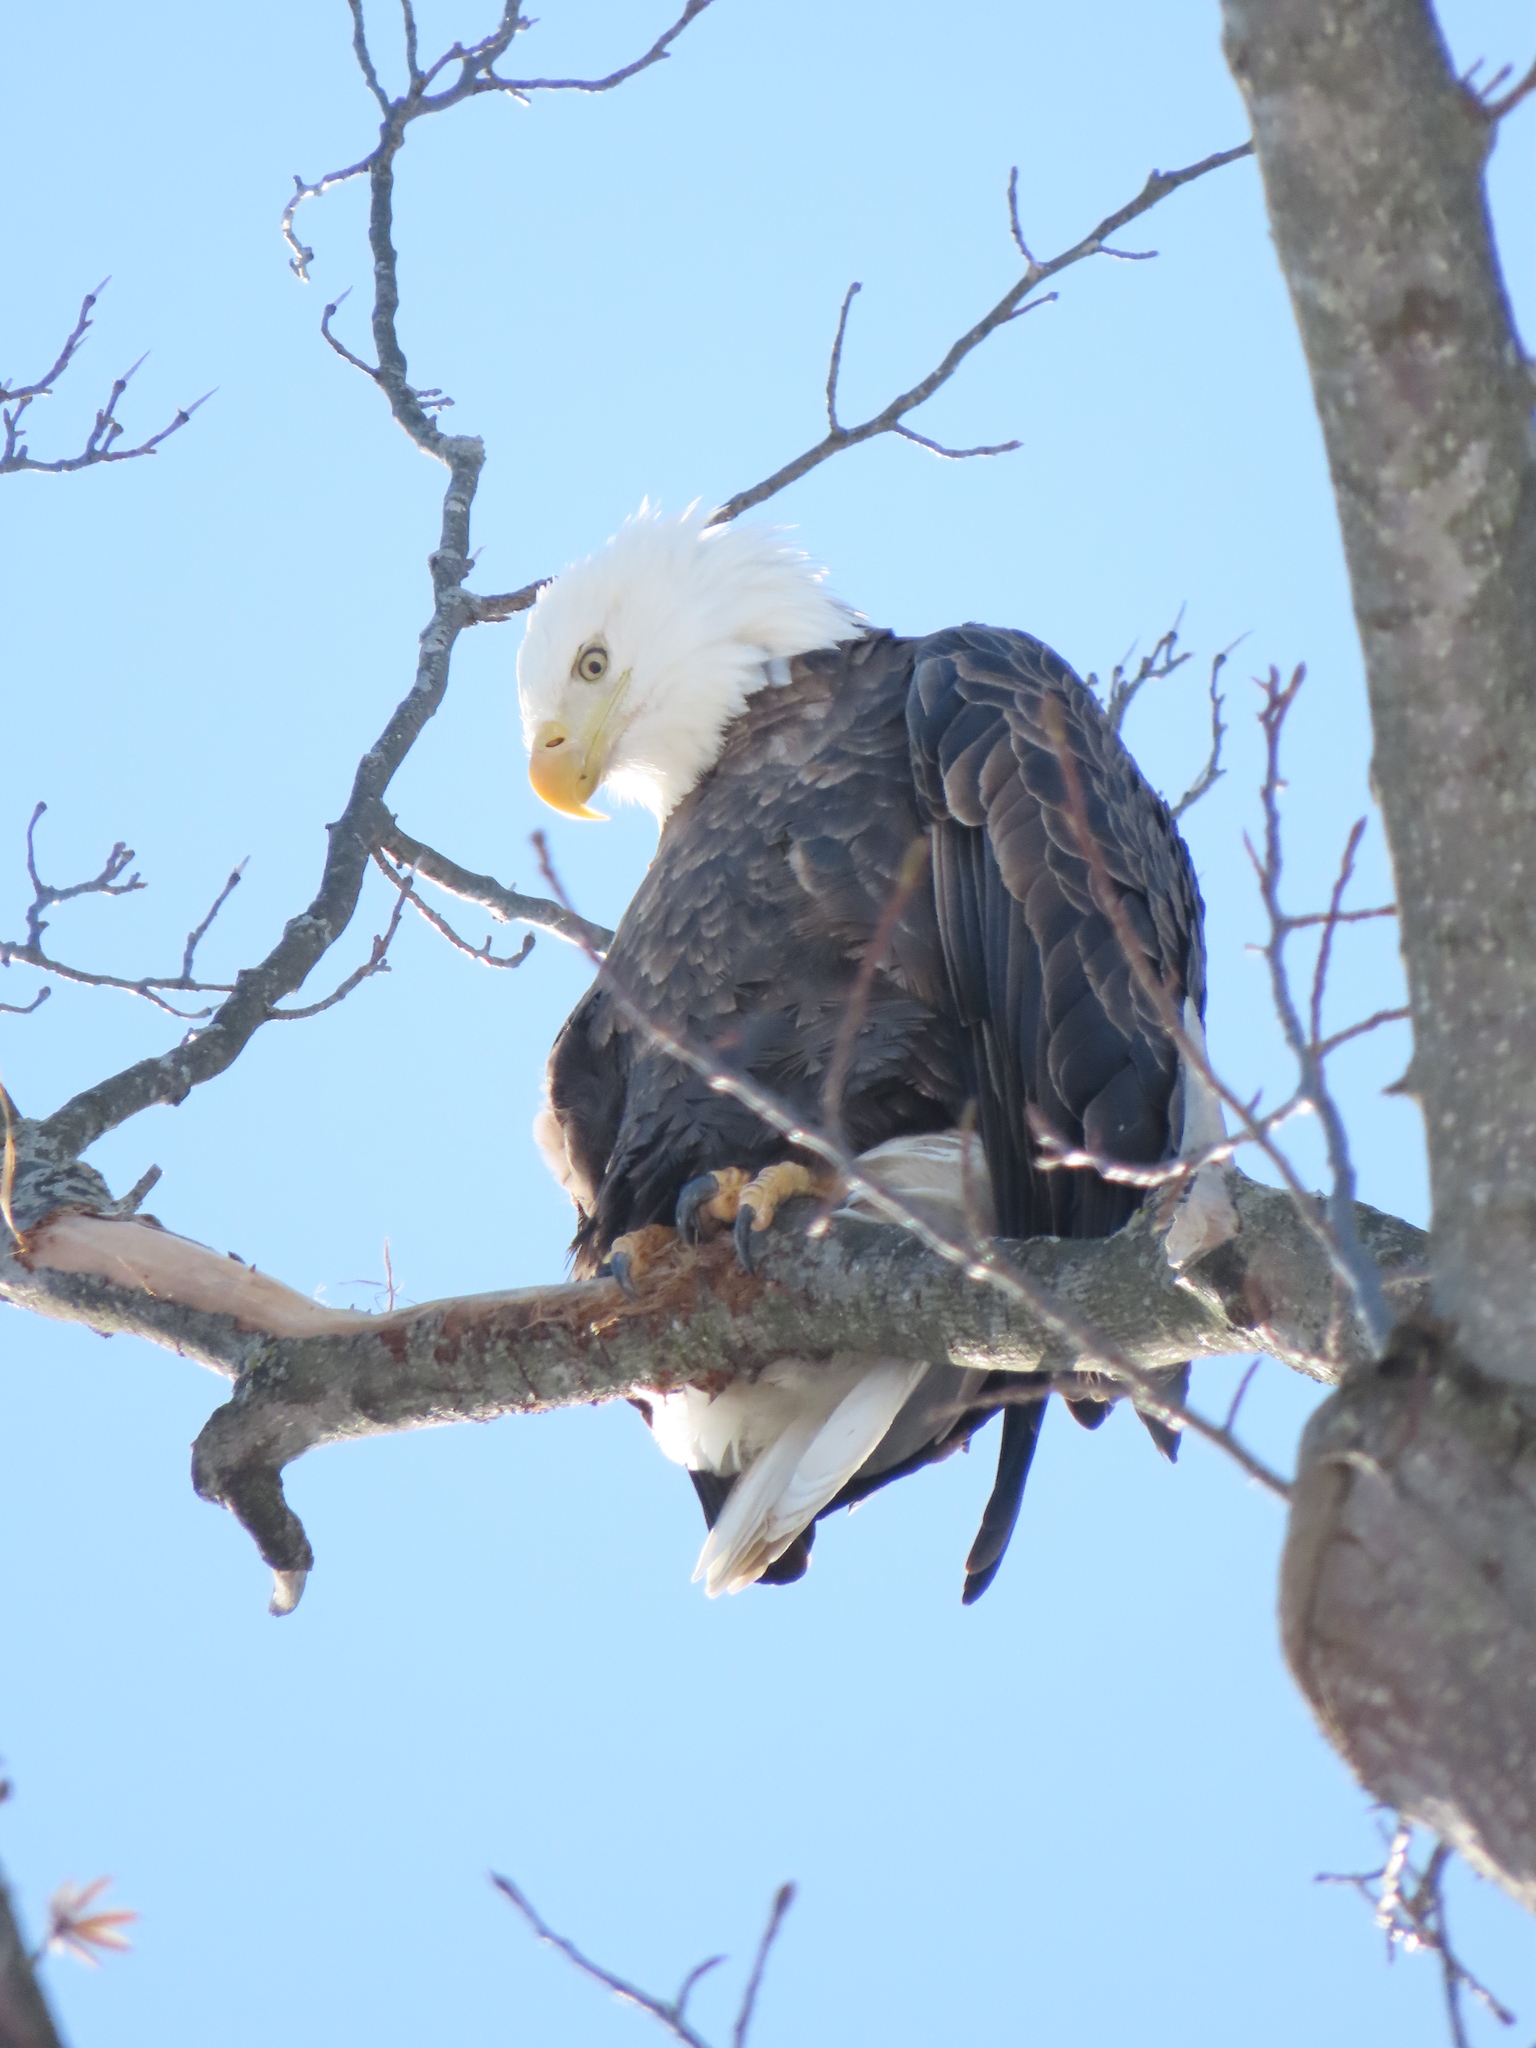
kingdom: Animalia
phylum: Chordata
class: Aves
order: Accipitriformes
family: Accipitridae
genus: Haliaeetus
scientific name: Haliaeetus leucocephalus
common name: Bald eagle
